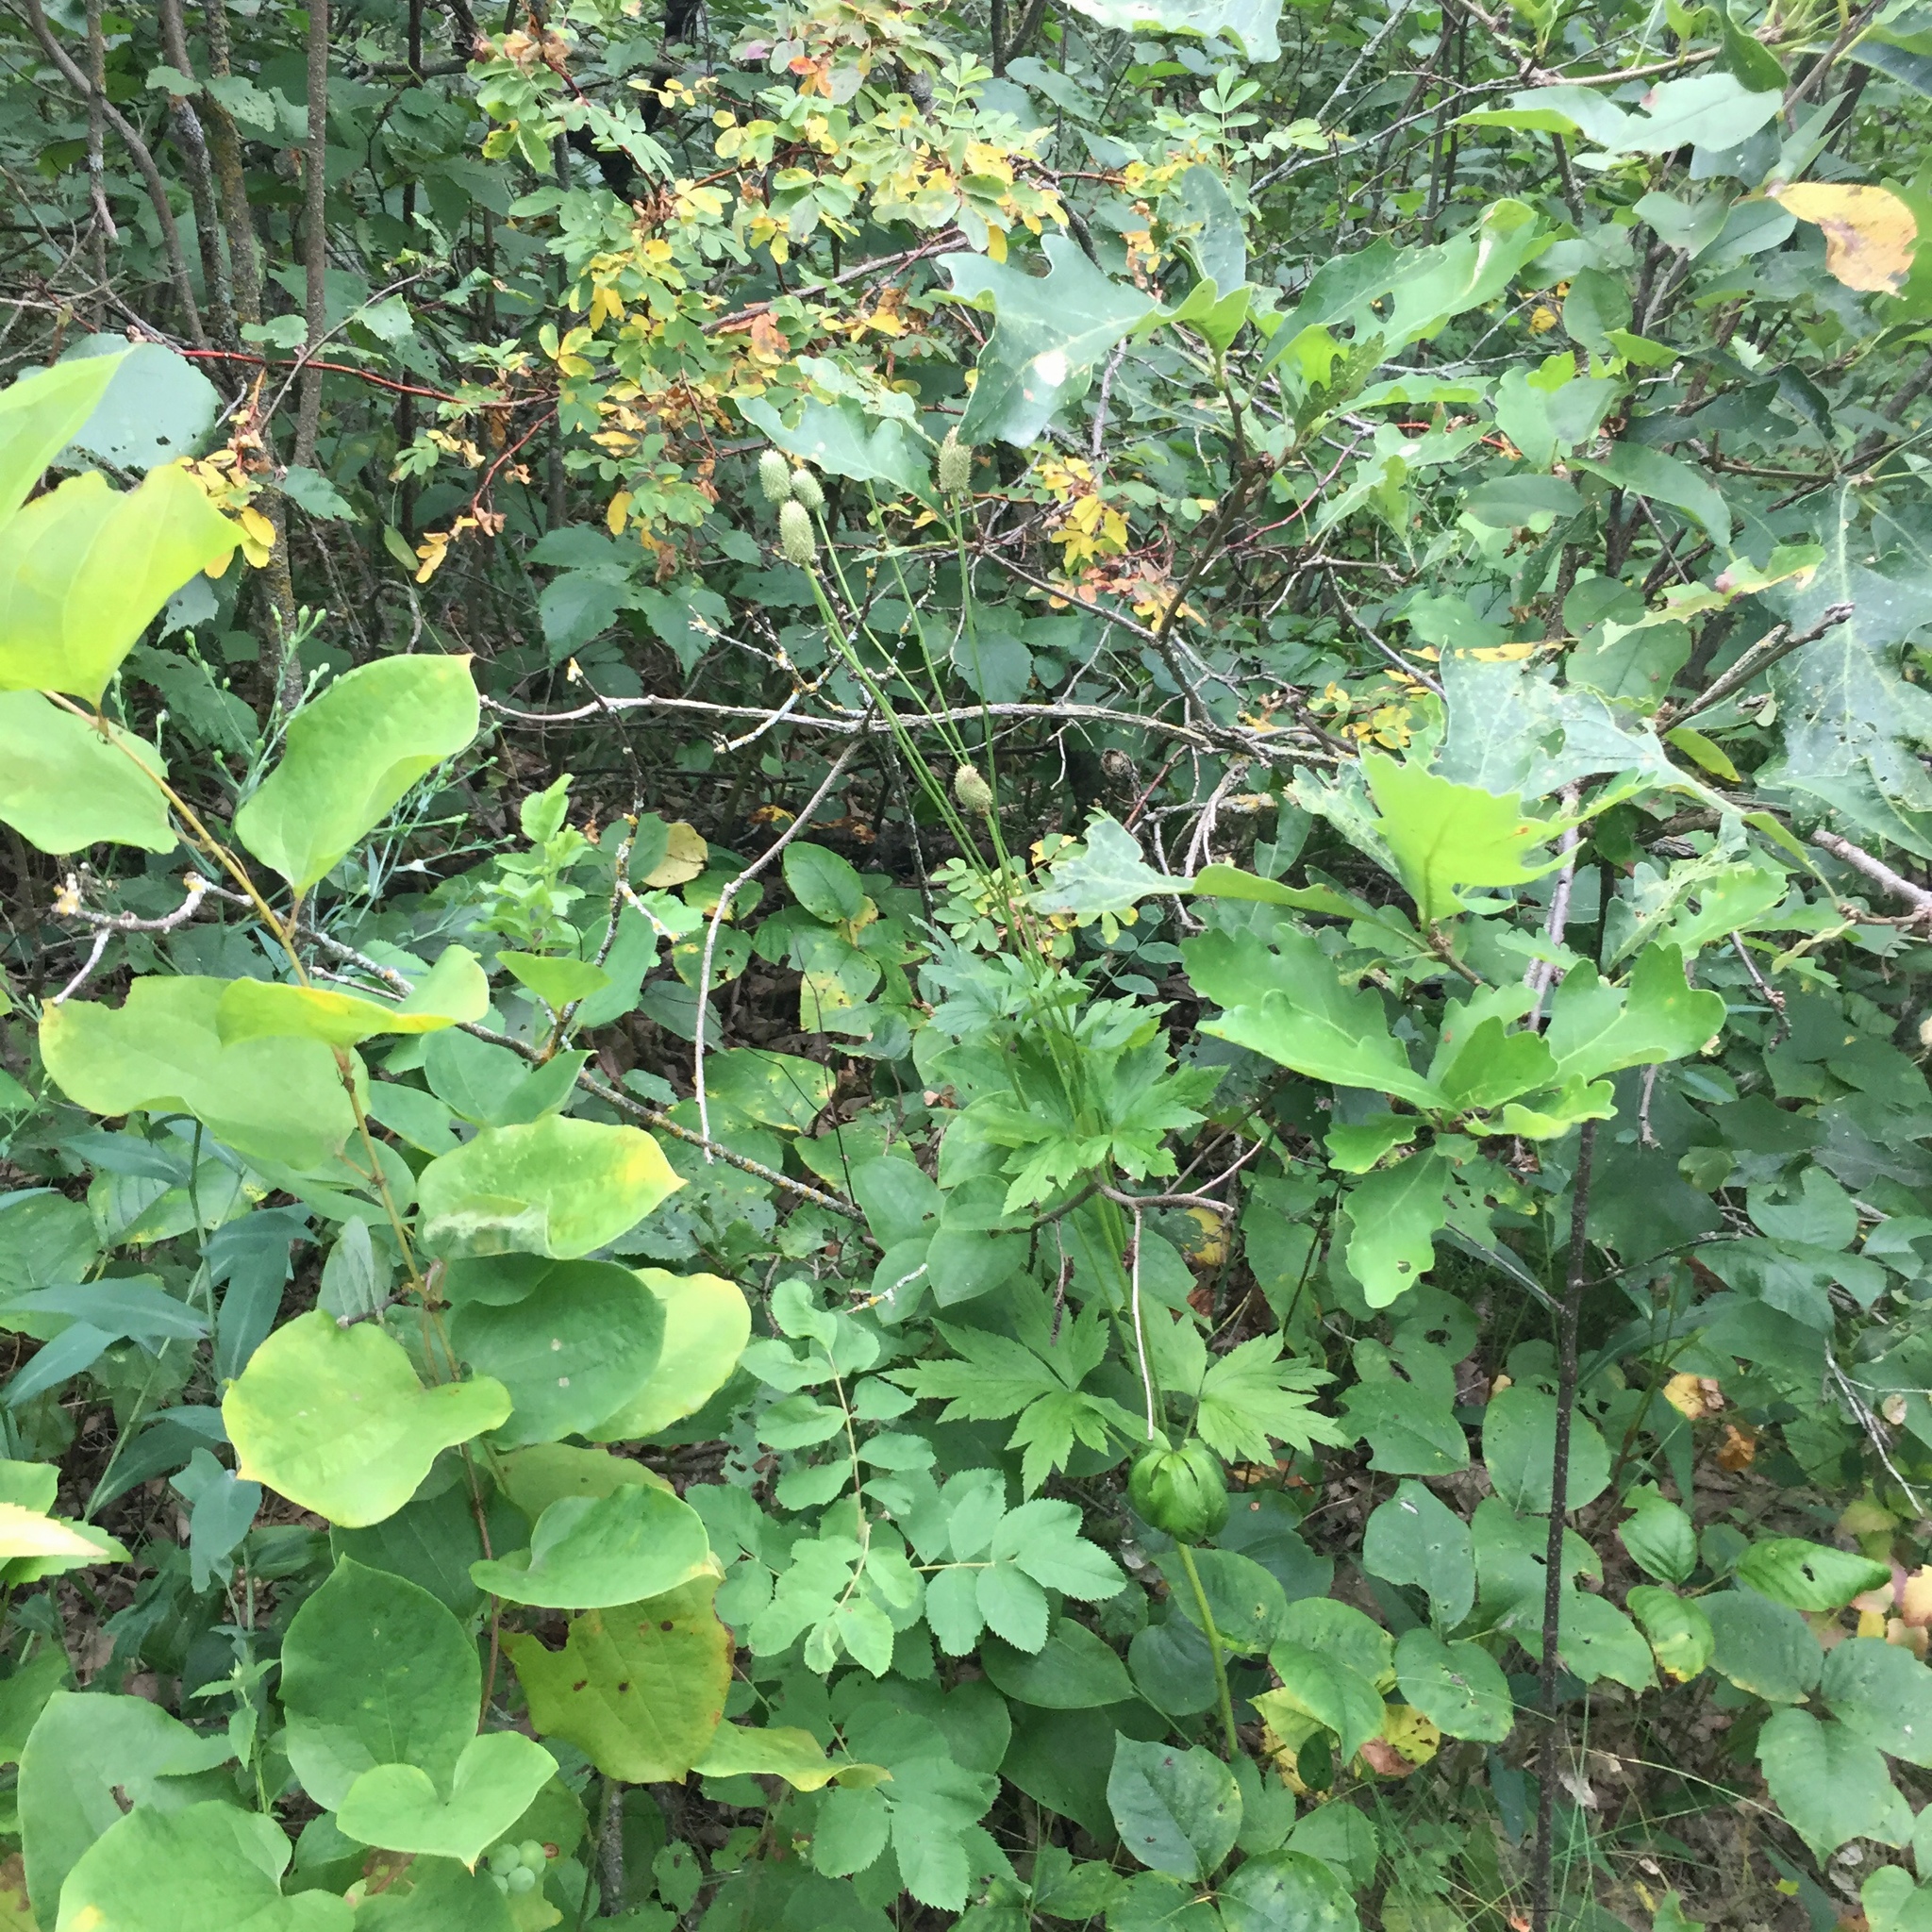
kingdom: Plantae
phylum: Tracheophyta
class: Magnoliopsida
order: Ranunculales
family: Ranunculaceae
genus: Anemone
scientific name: Anemone virginiana
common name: Tall anemone
